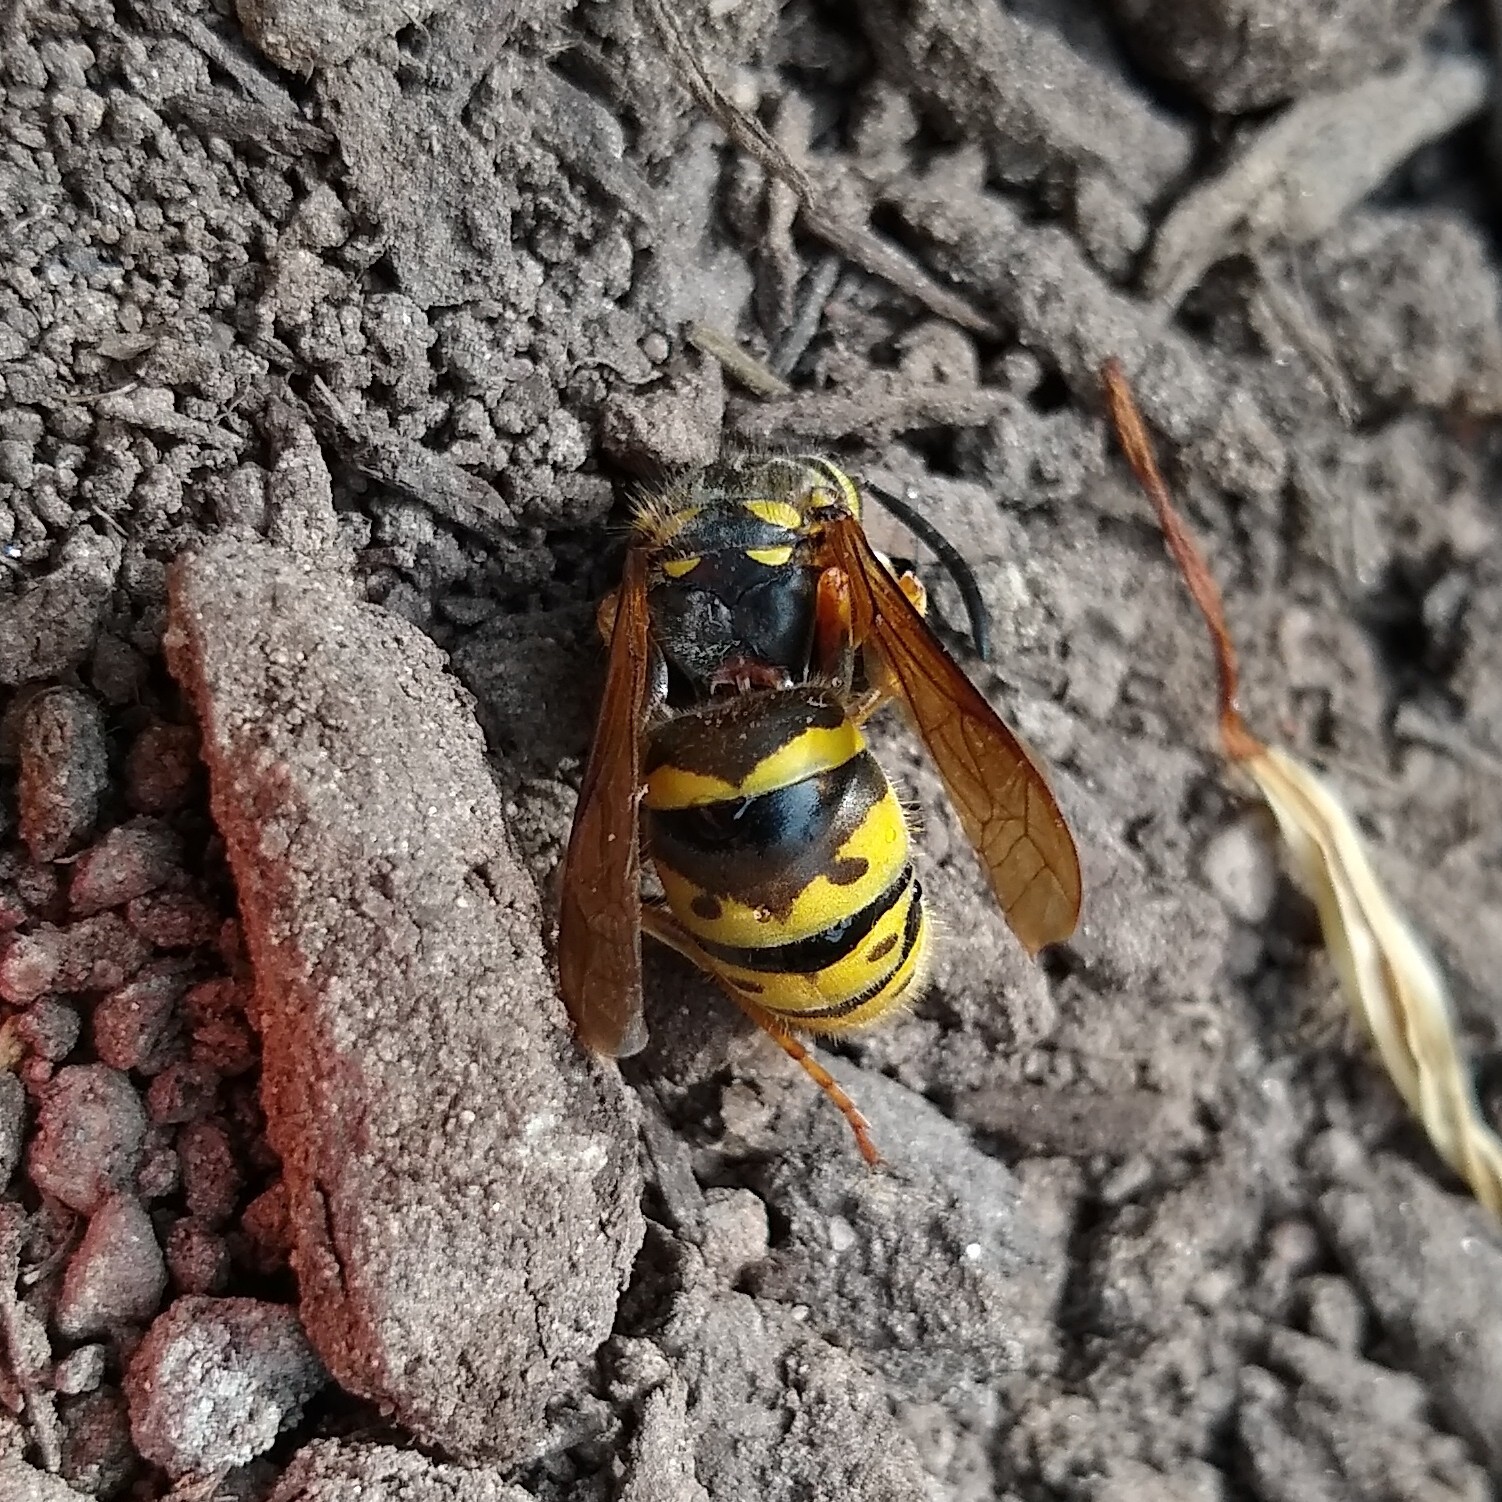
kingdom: Animalia
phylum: Arthropoda
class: Insecta
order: Hymenoptera
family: Vespidae
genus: Vespula
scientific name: Vespula flavopilosa
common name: Downy yellowjacket
